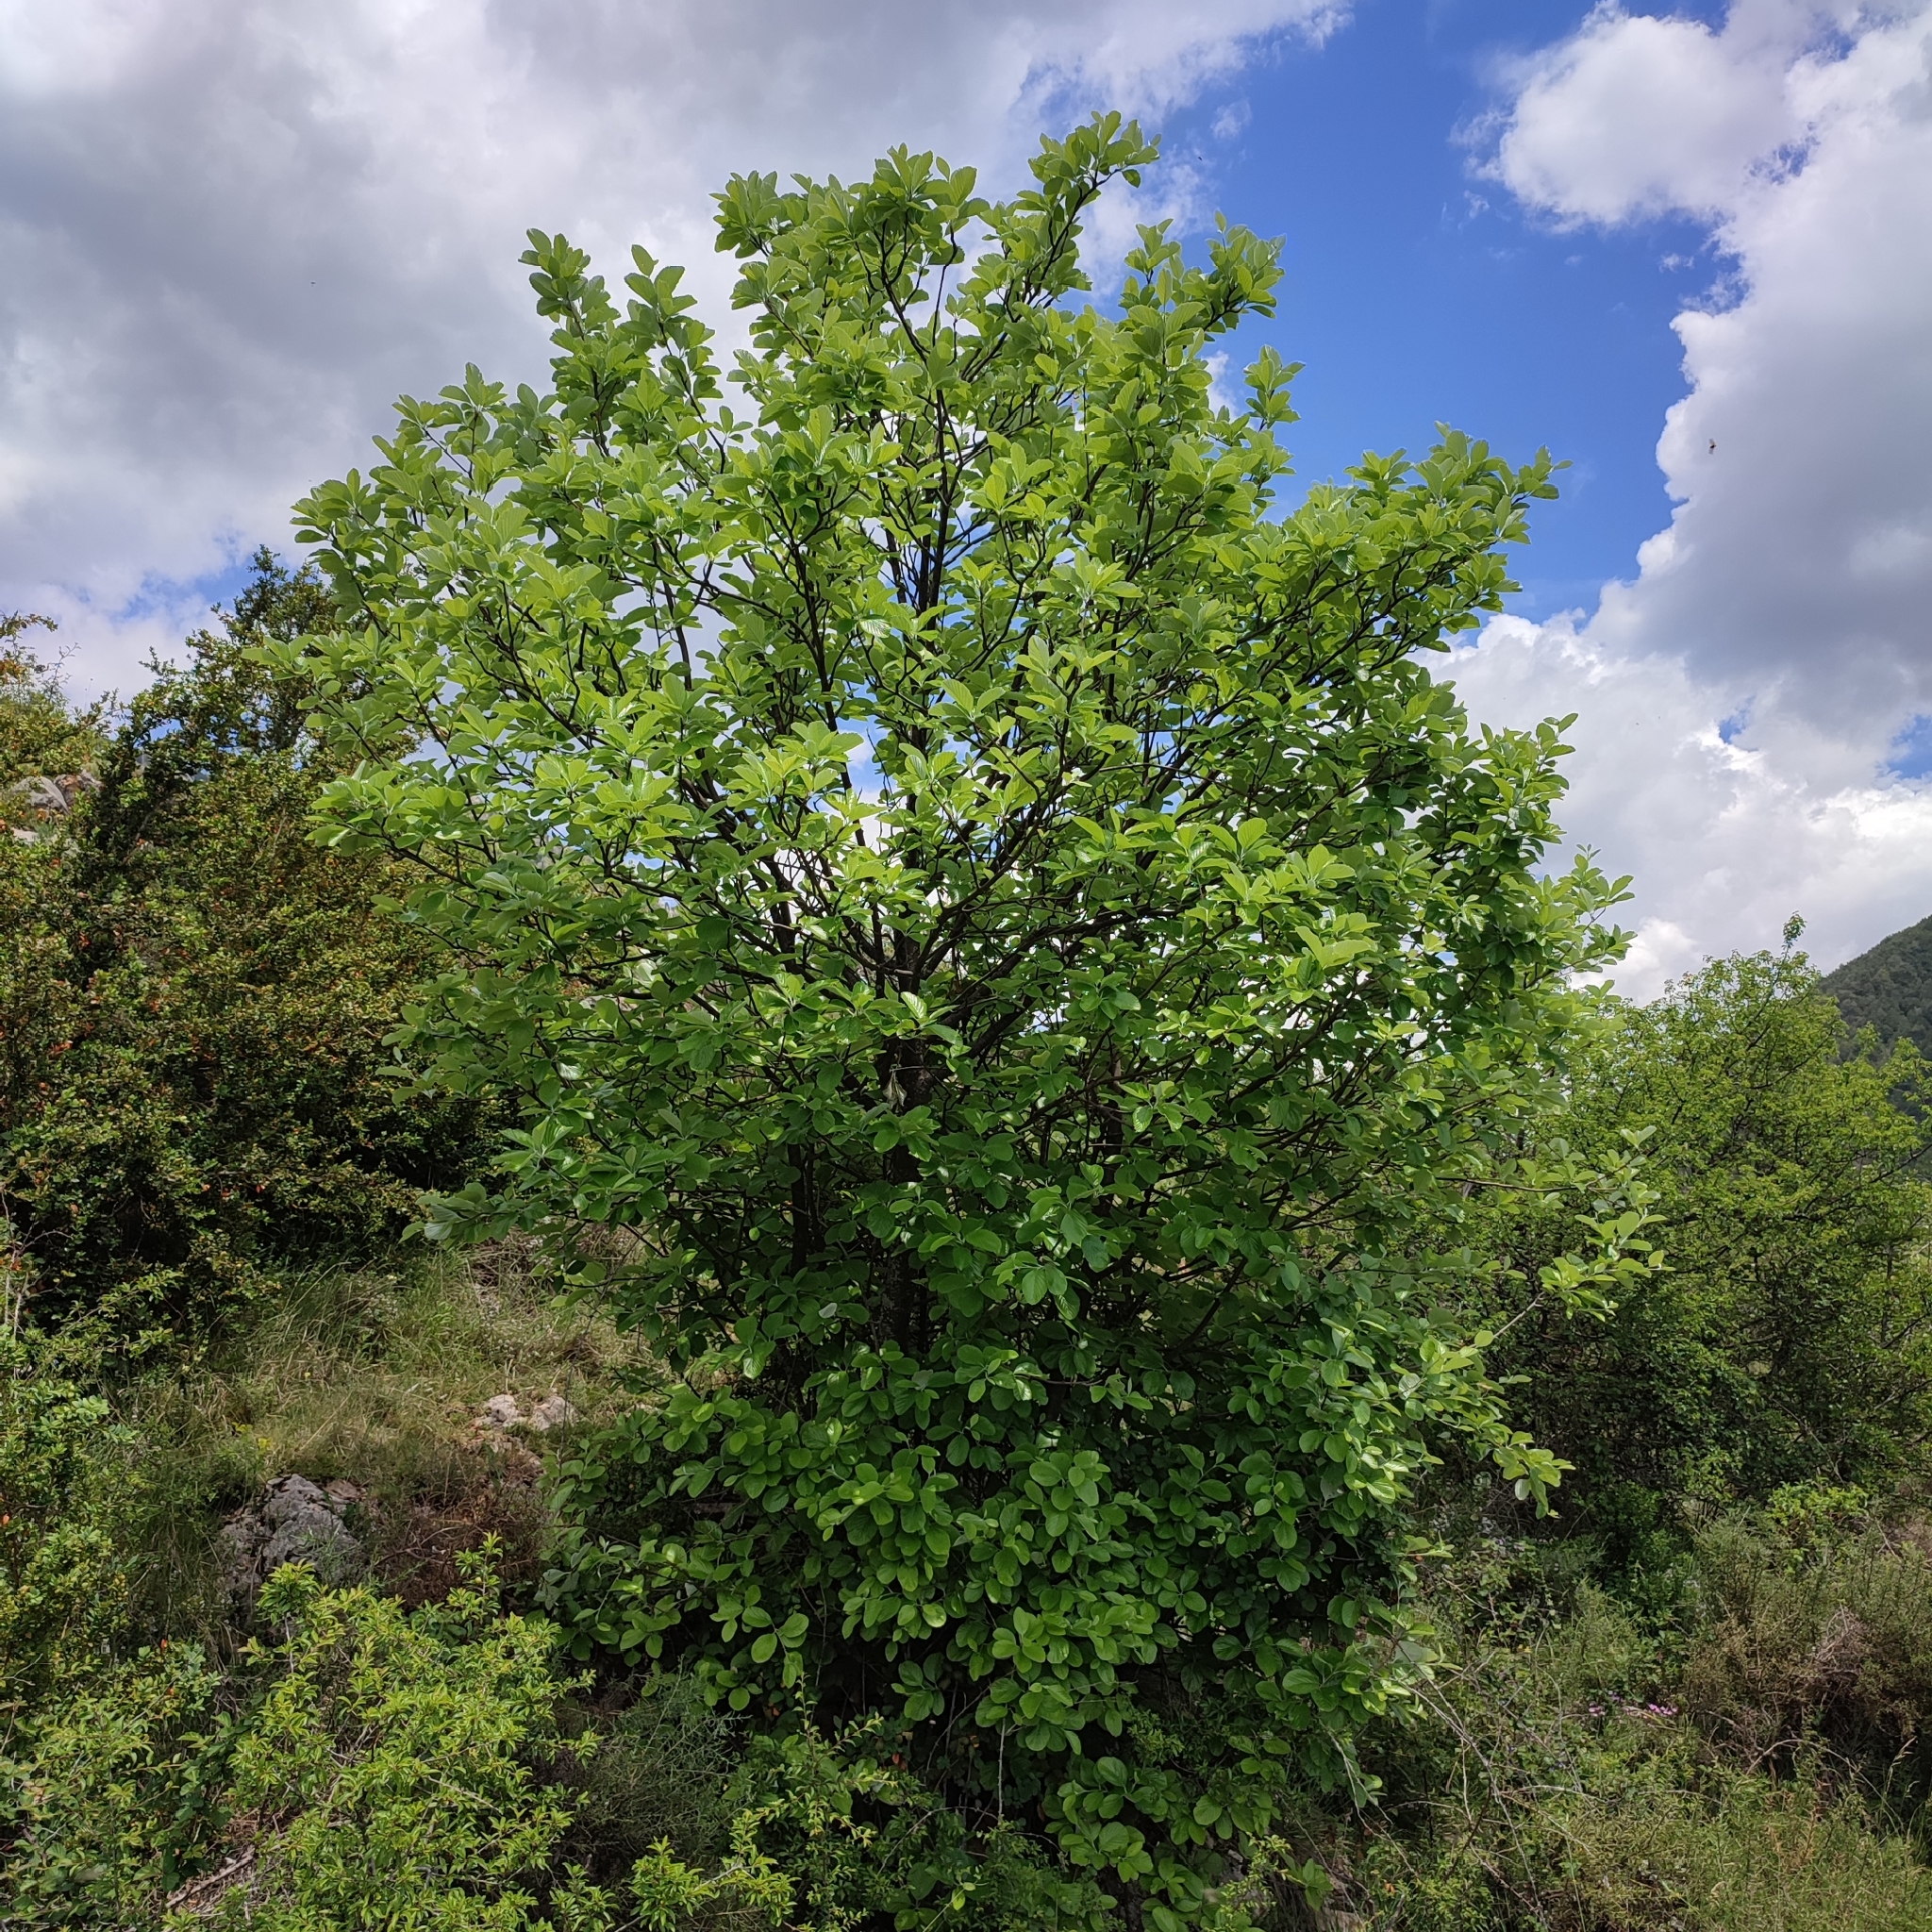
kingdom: Plantae
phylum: Tracheophyta
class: Magnoliopsida
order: Rosales
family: Rosaceae
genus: Aria
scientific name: Aria edulis
